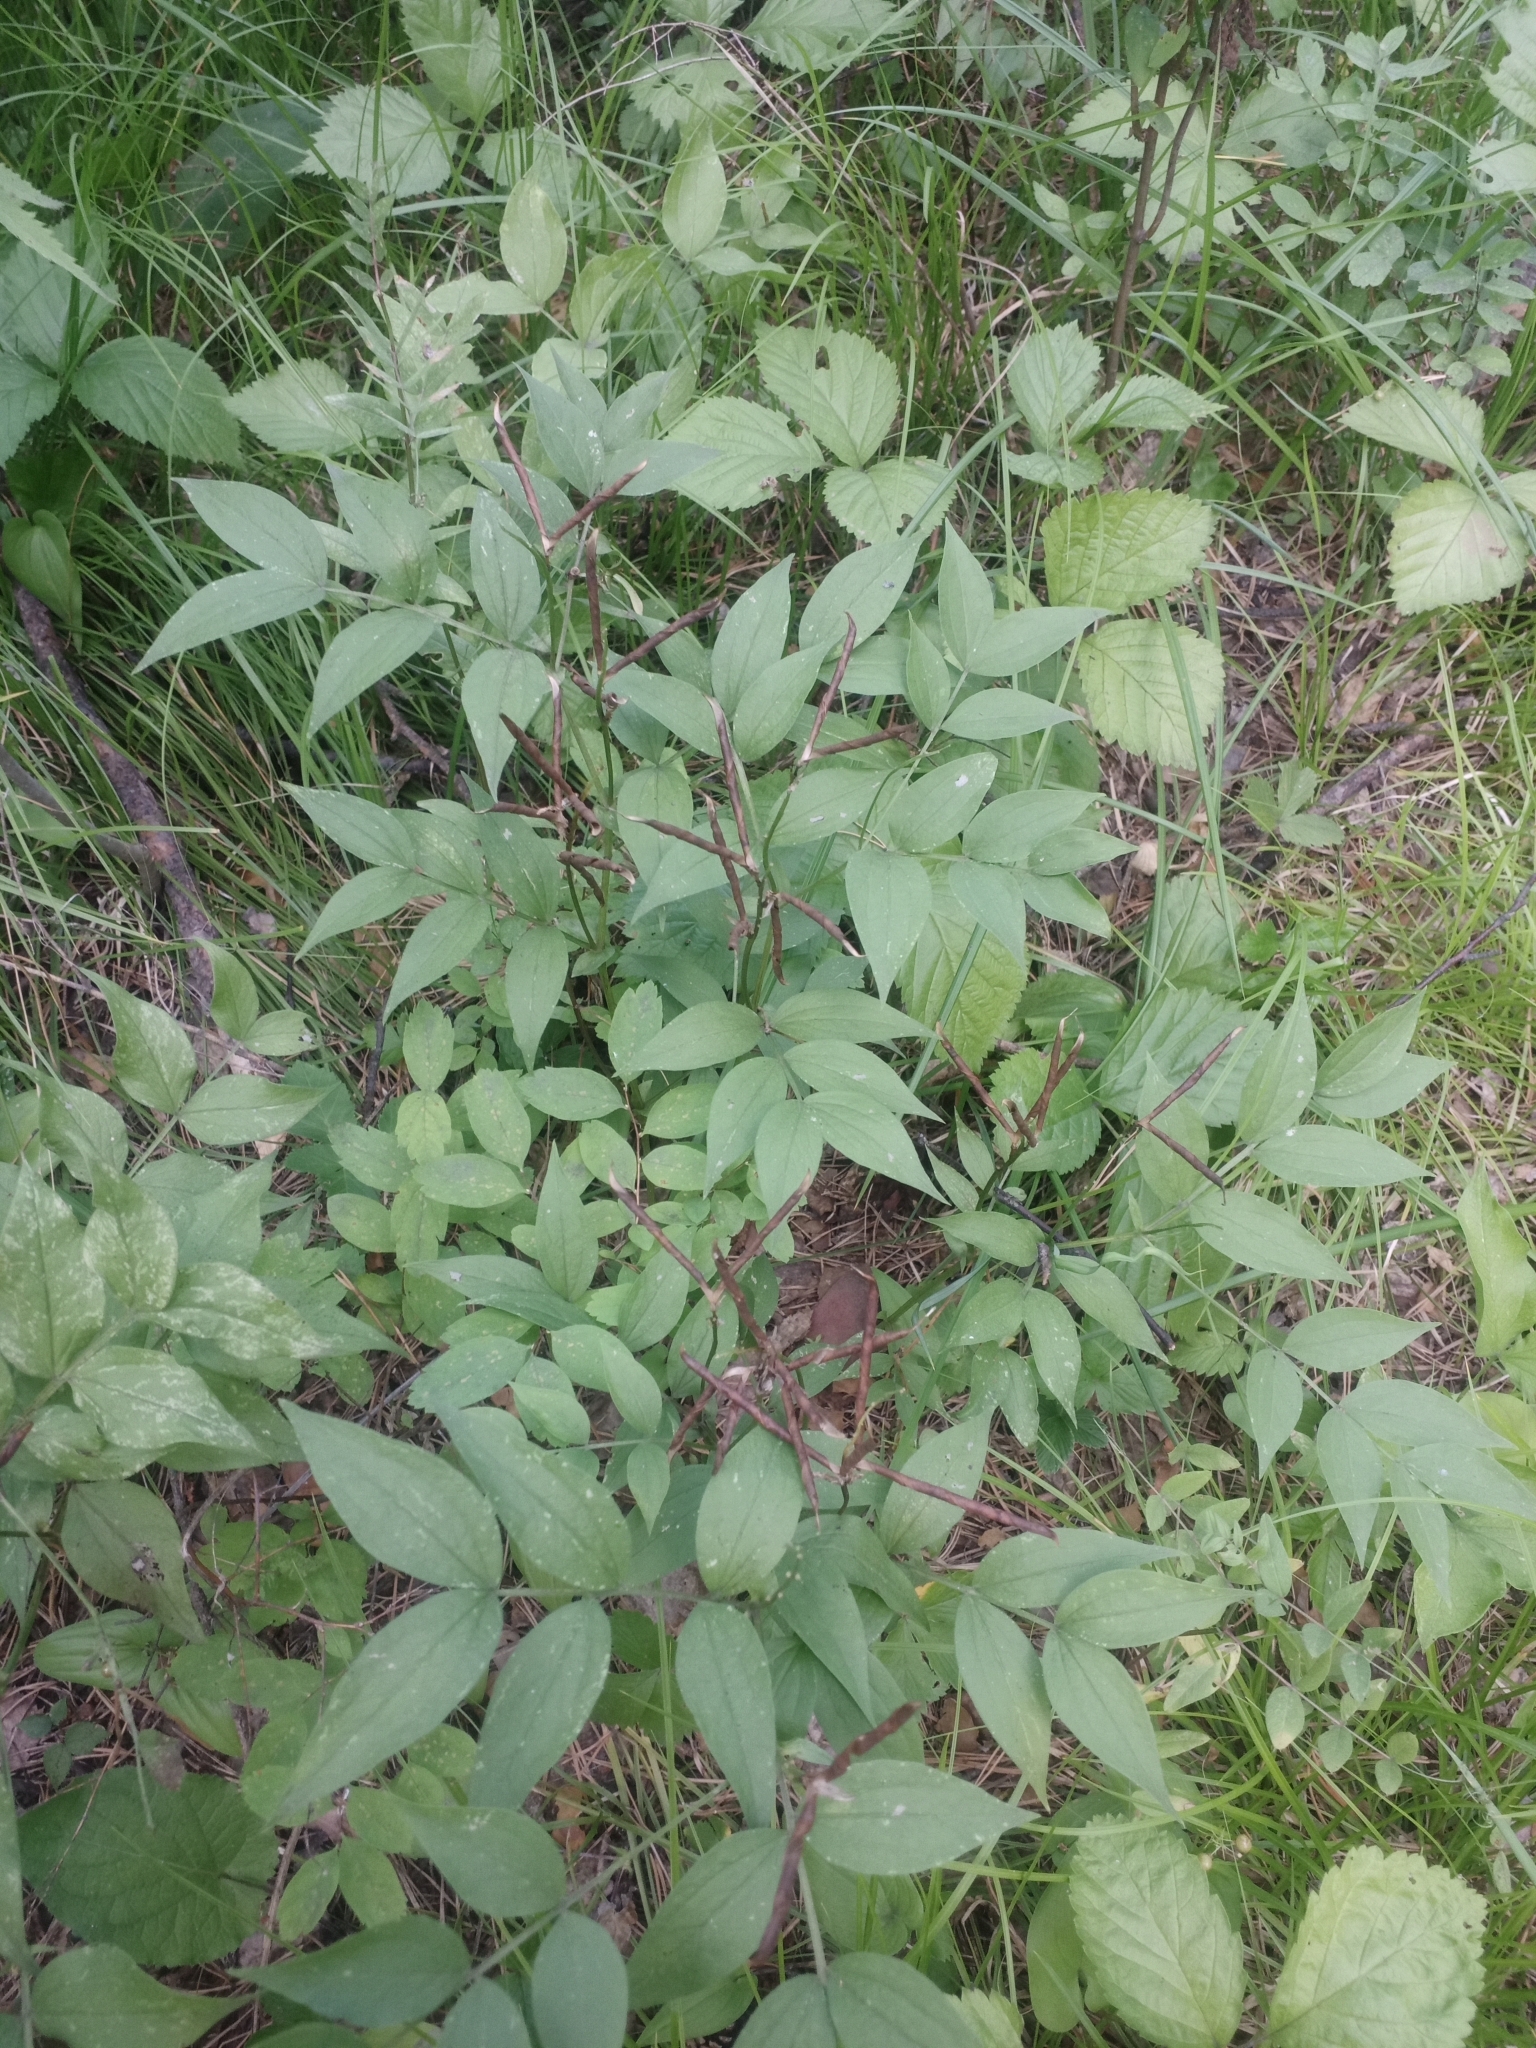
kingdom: Plantae
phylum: Tracheophyta
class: Magnoliopsida
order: Fabales
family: Fabaceae
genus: Lathyrus
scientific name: Lathyrus vernus
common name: Spring pea
